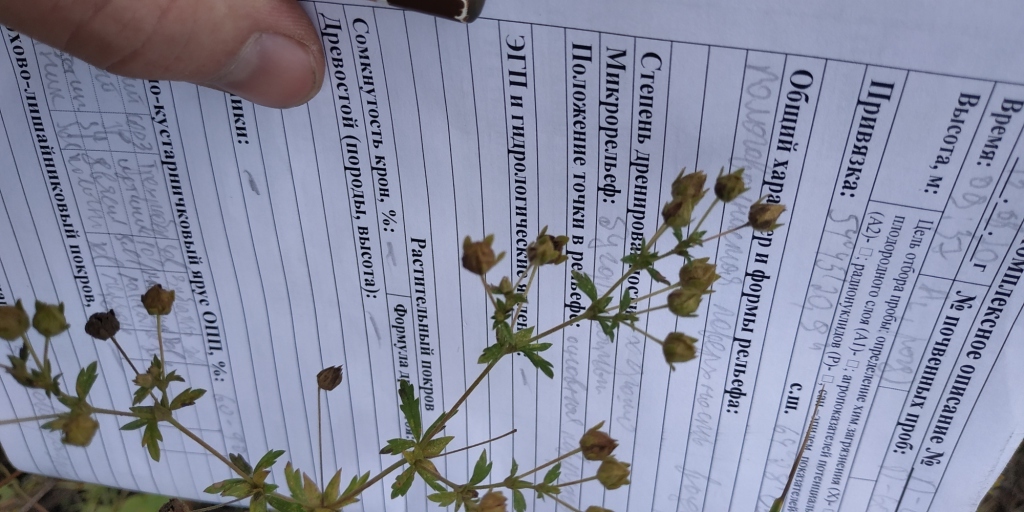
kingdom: Plantae
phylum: Tracheophyta
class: Magnoliopsida
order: Rosales
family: Rosaceae
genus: Potentilla
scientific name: Potentilla norvegica
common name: Ternate-leaved cinquefoil
